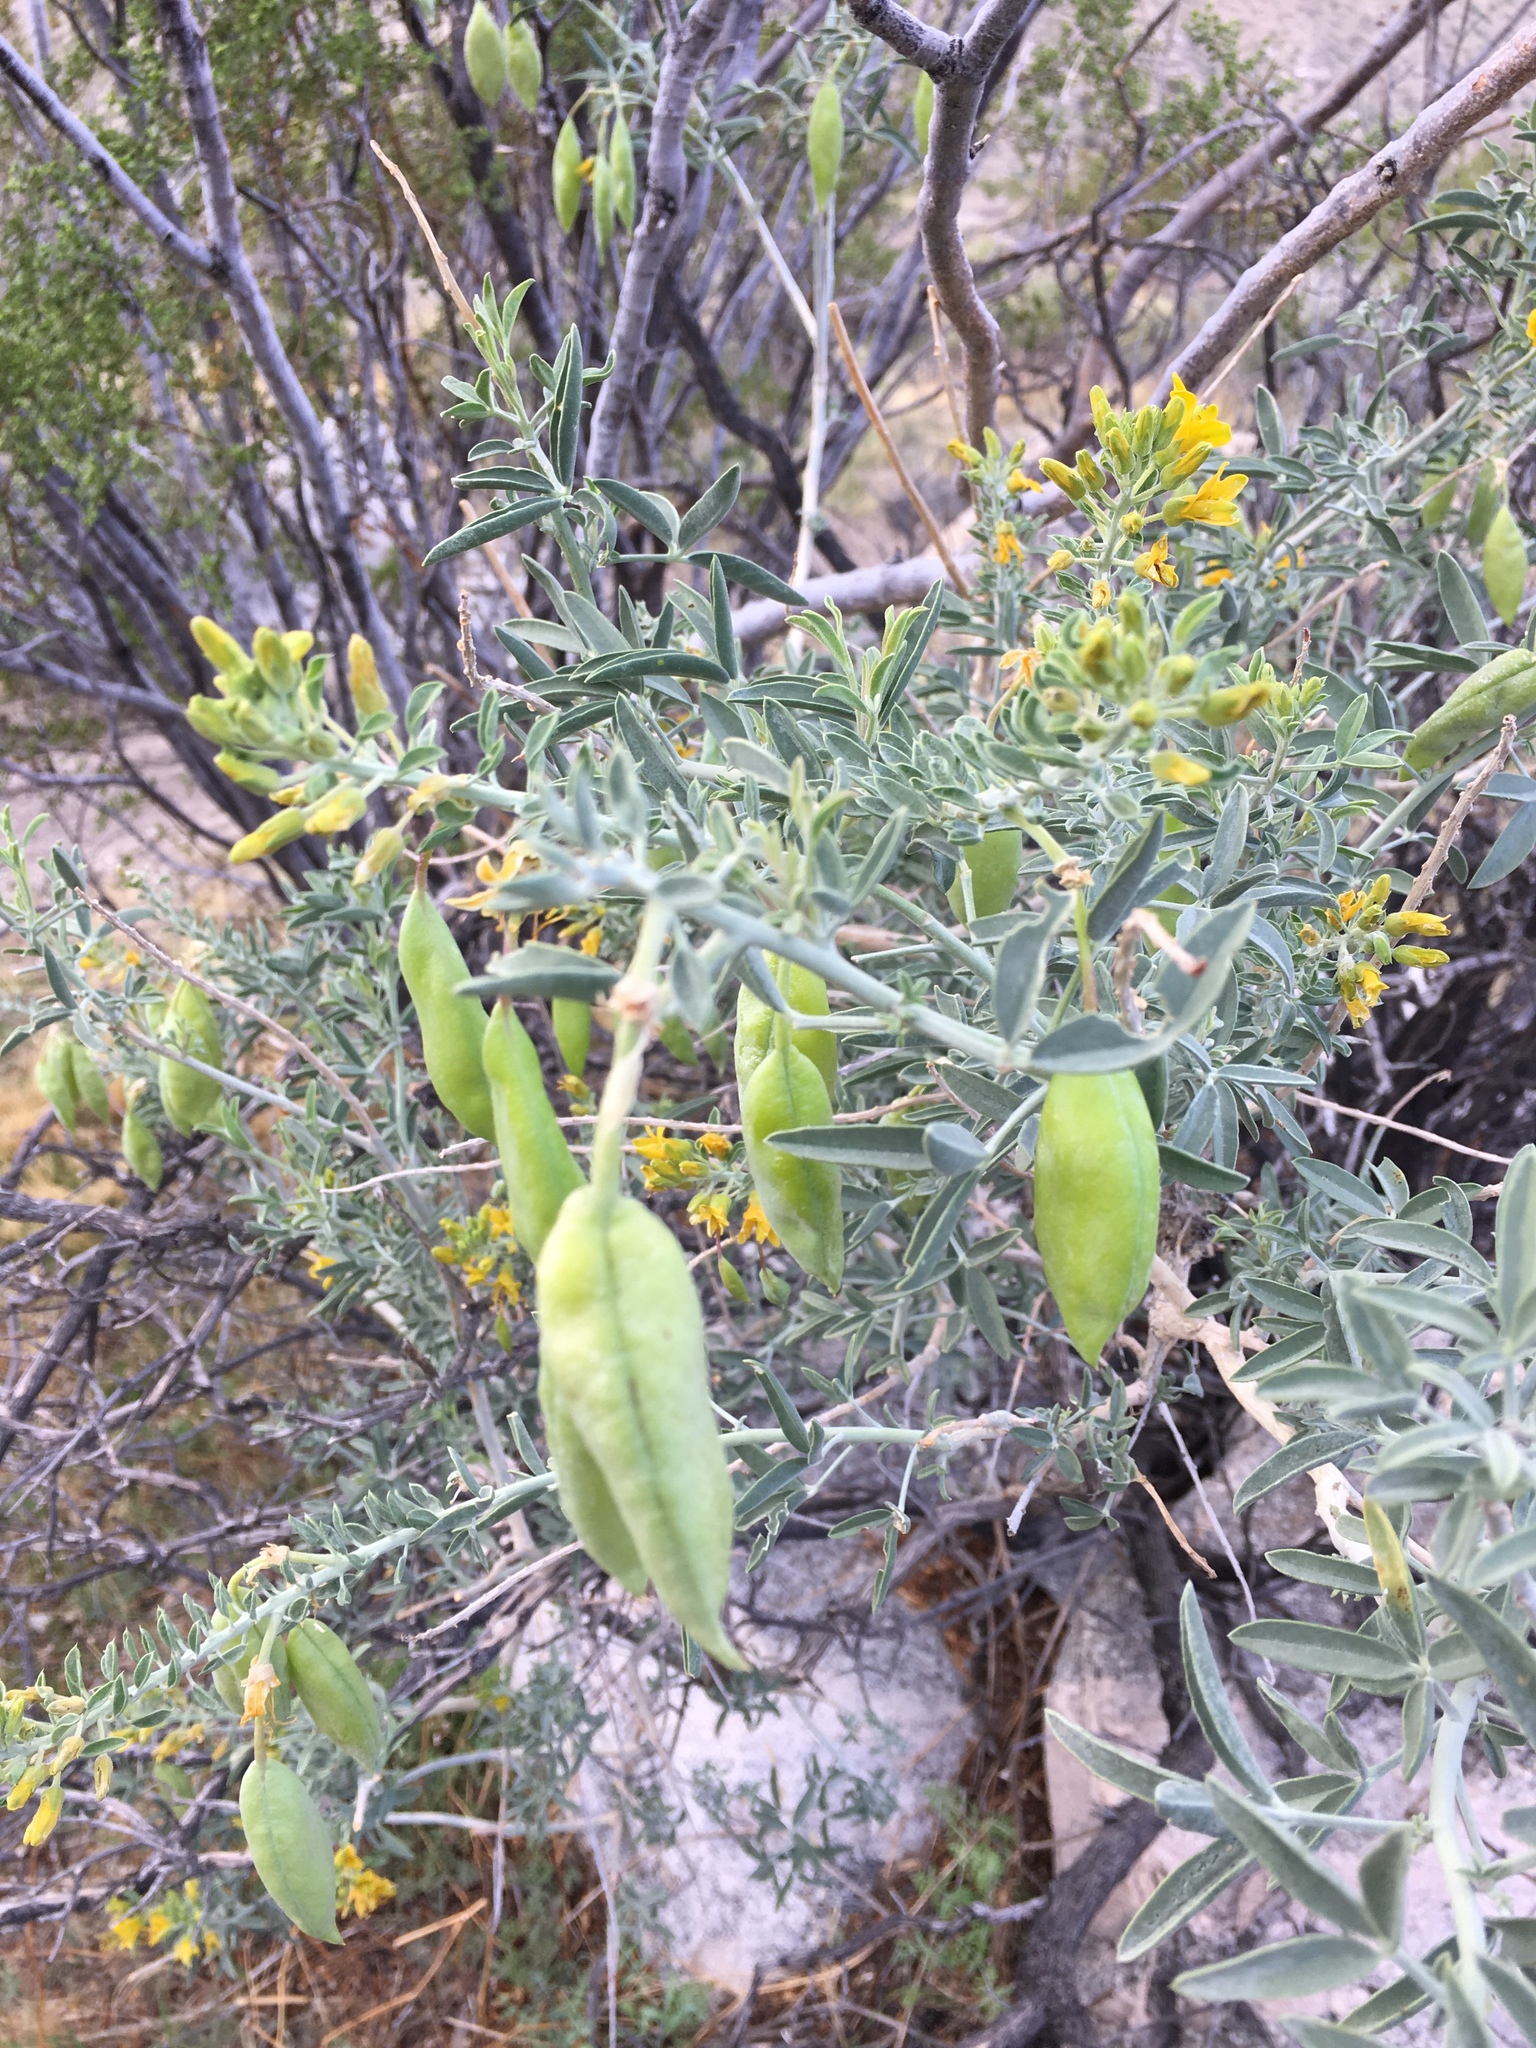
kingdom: Plantae
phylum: Tracheophyta
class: Magnoliopsida
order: Brassicales
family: Cleomaceae
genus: Cleomella
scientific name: Cleomella arborea
